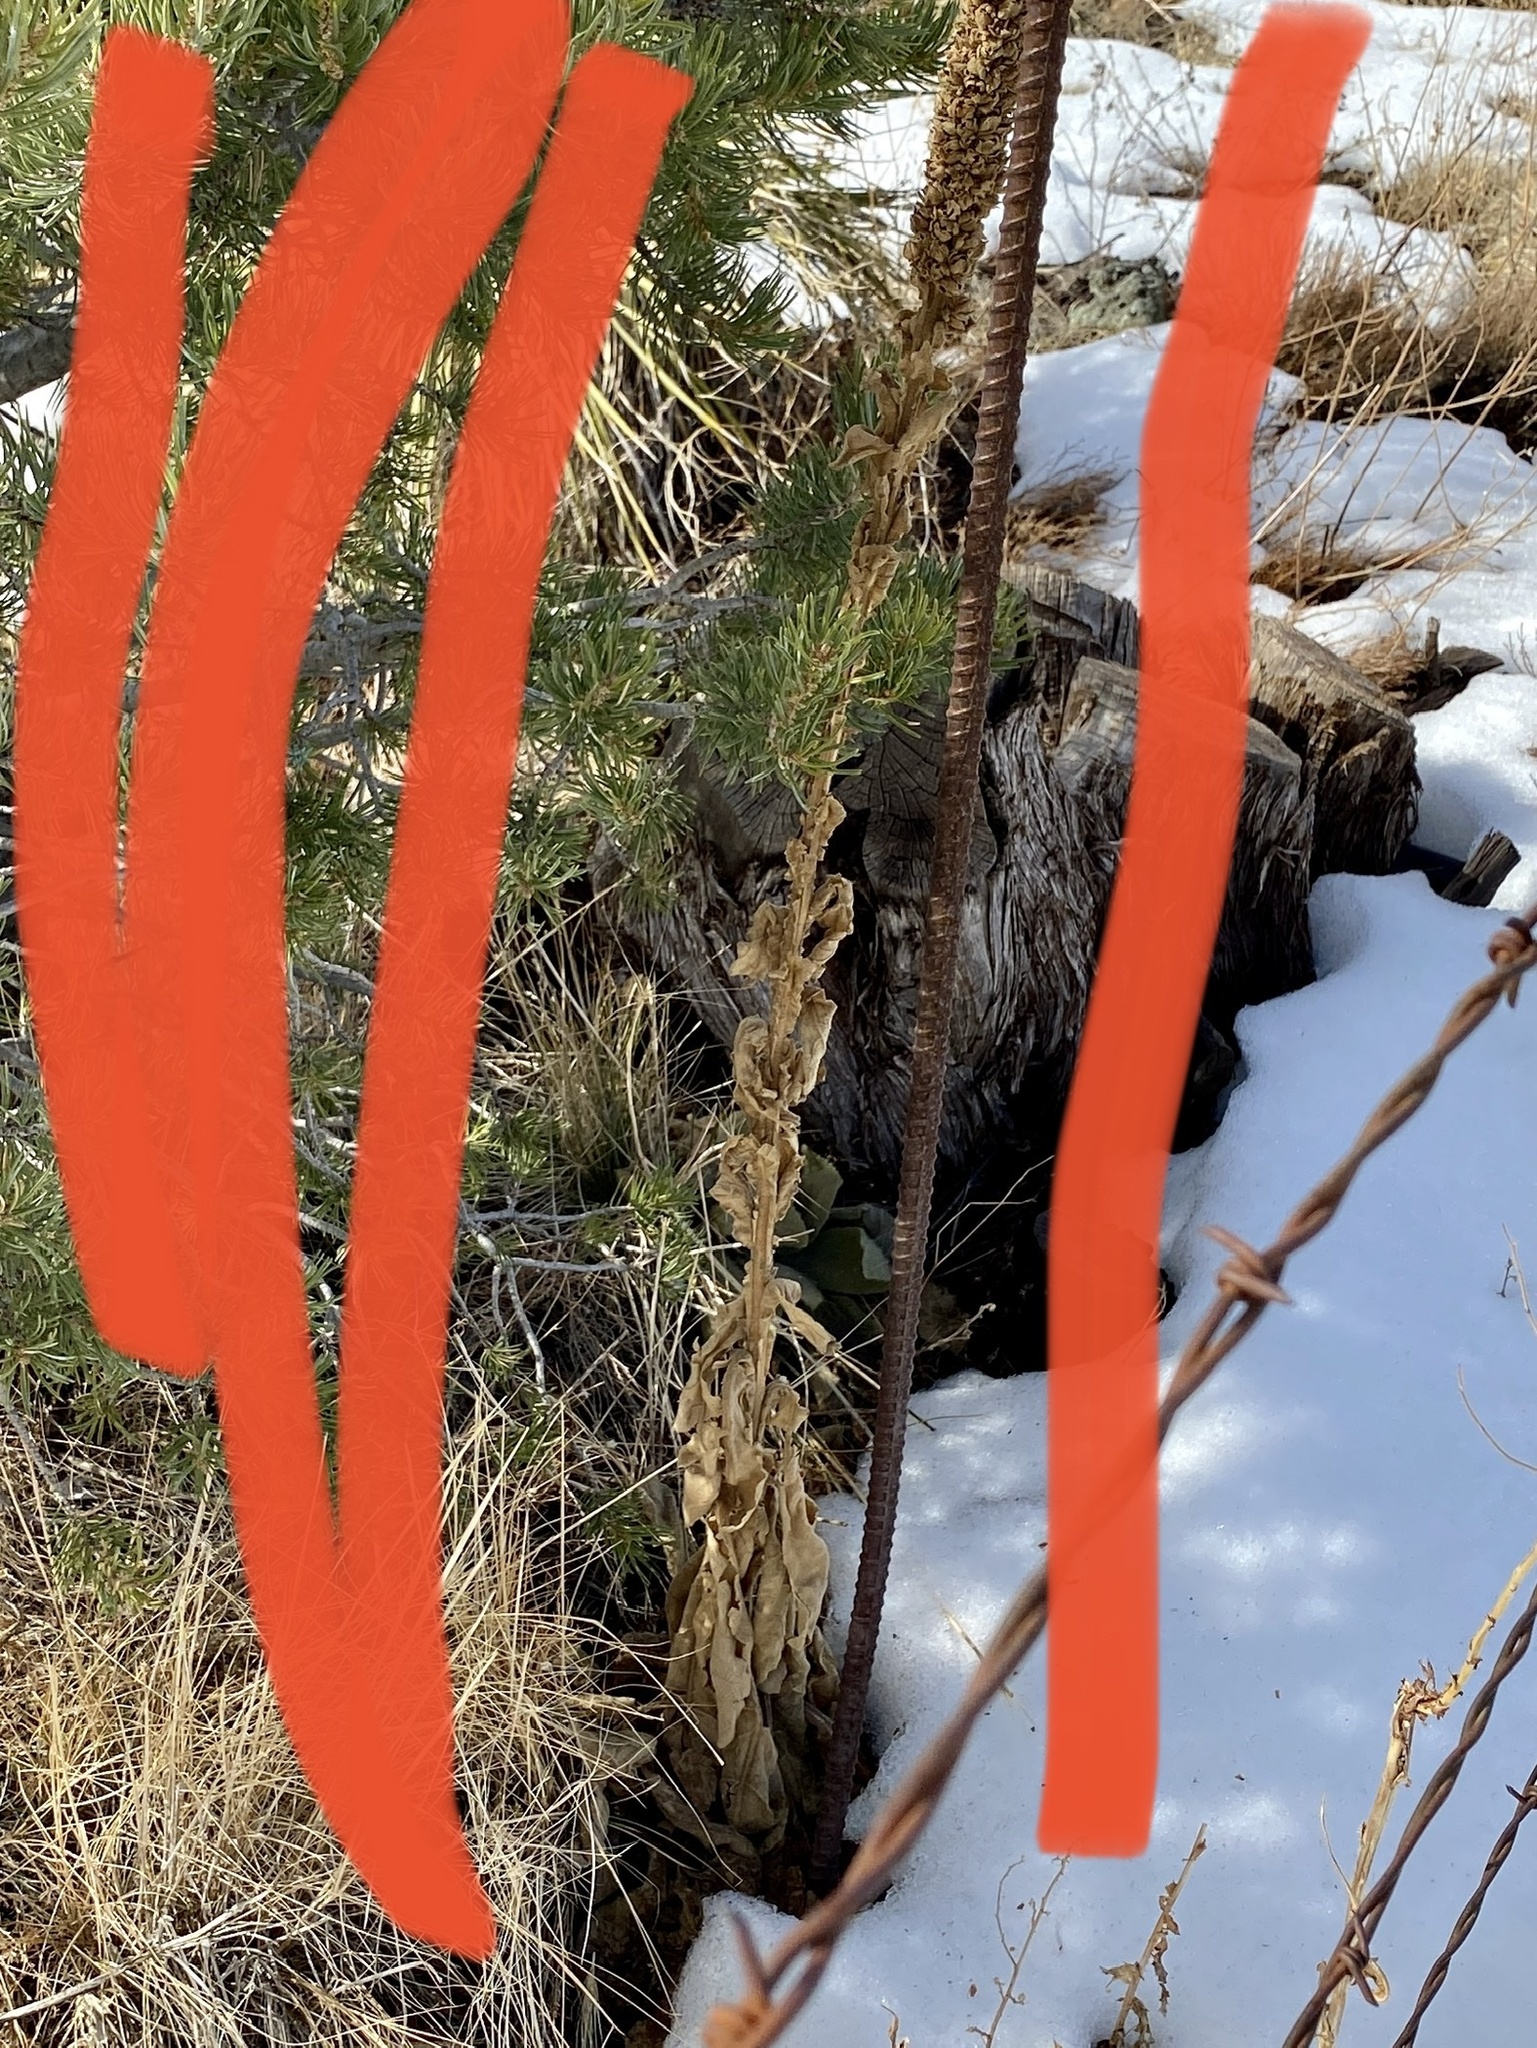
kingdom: Plantae
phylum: Tracheophyta
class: Magnoliopsida
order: Lamiales
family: Scrophulariaceae
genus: Verbascum
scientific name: Verbascum thapsus
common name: Common mullein
